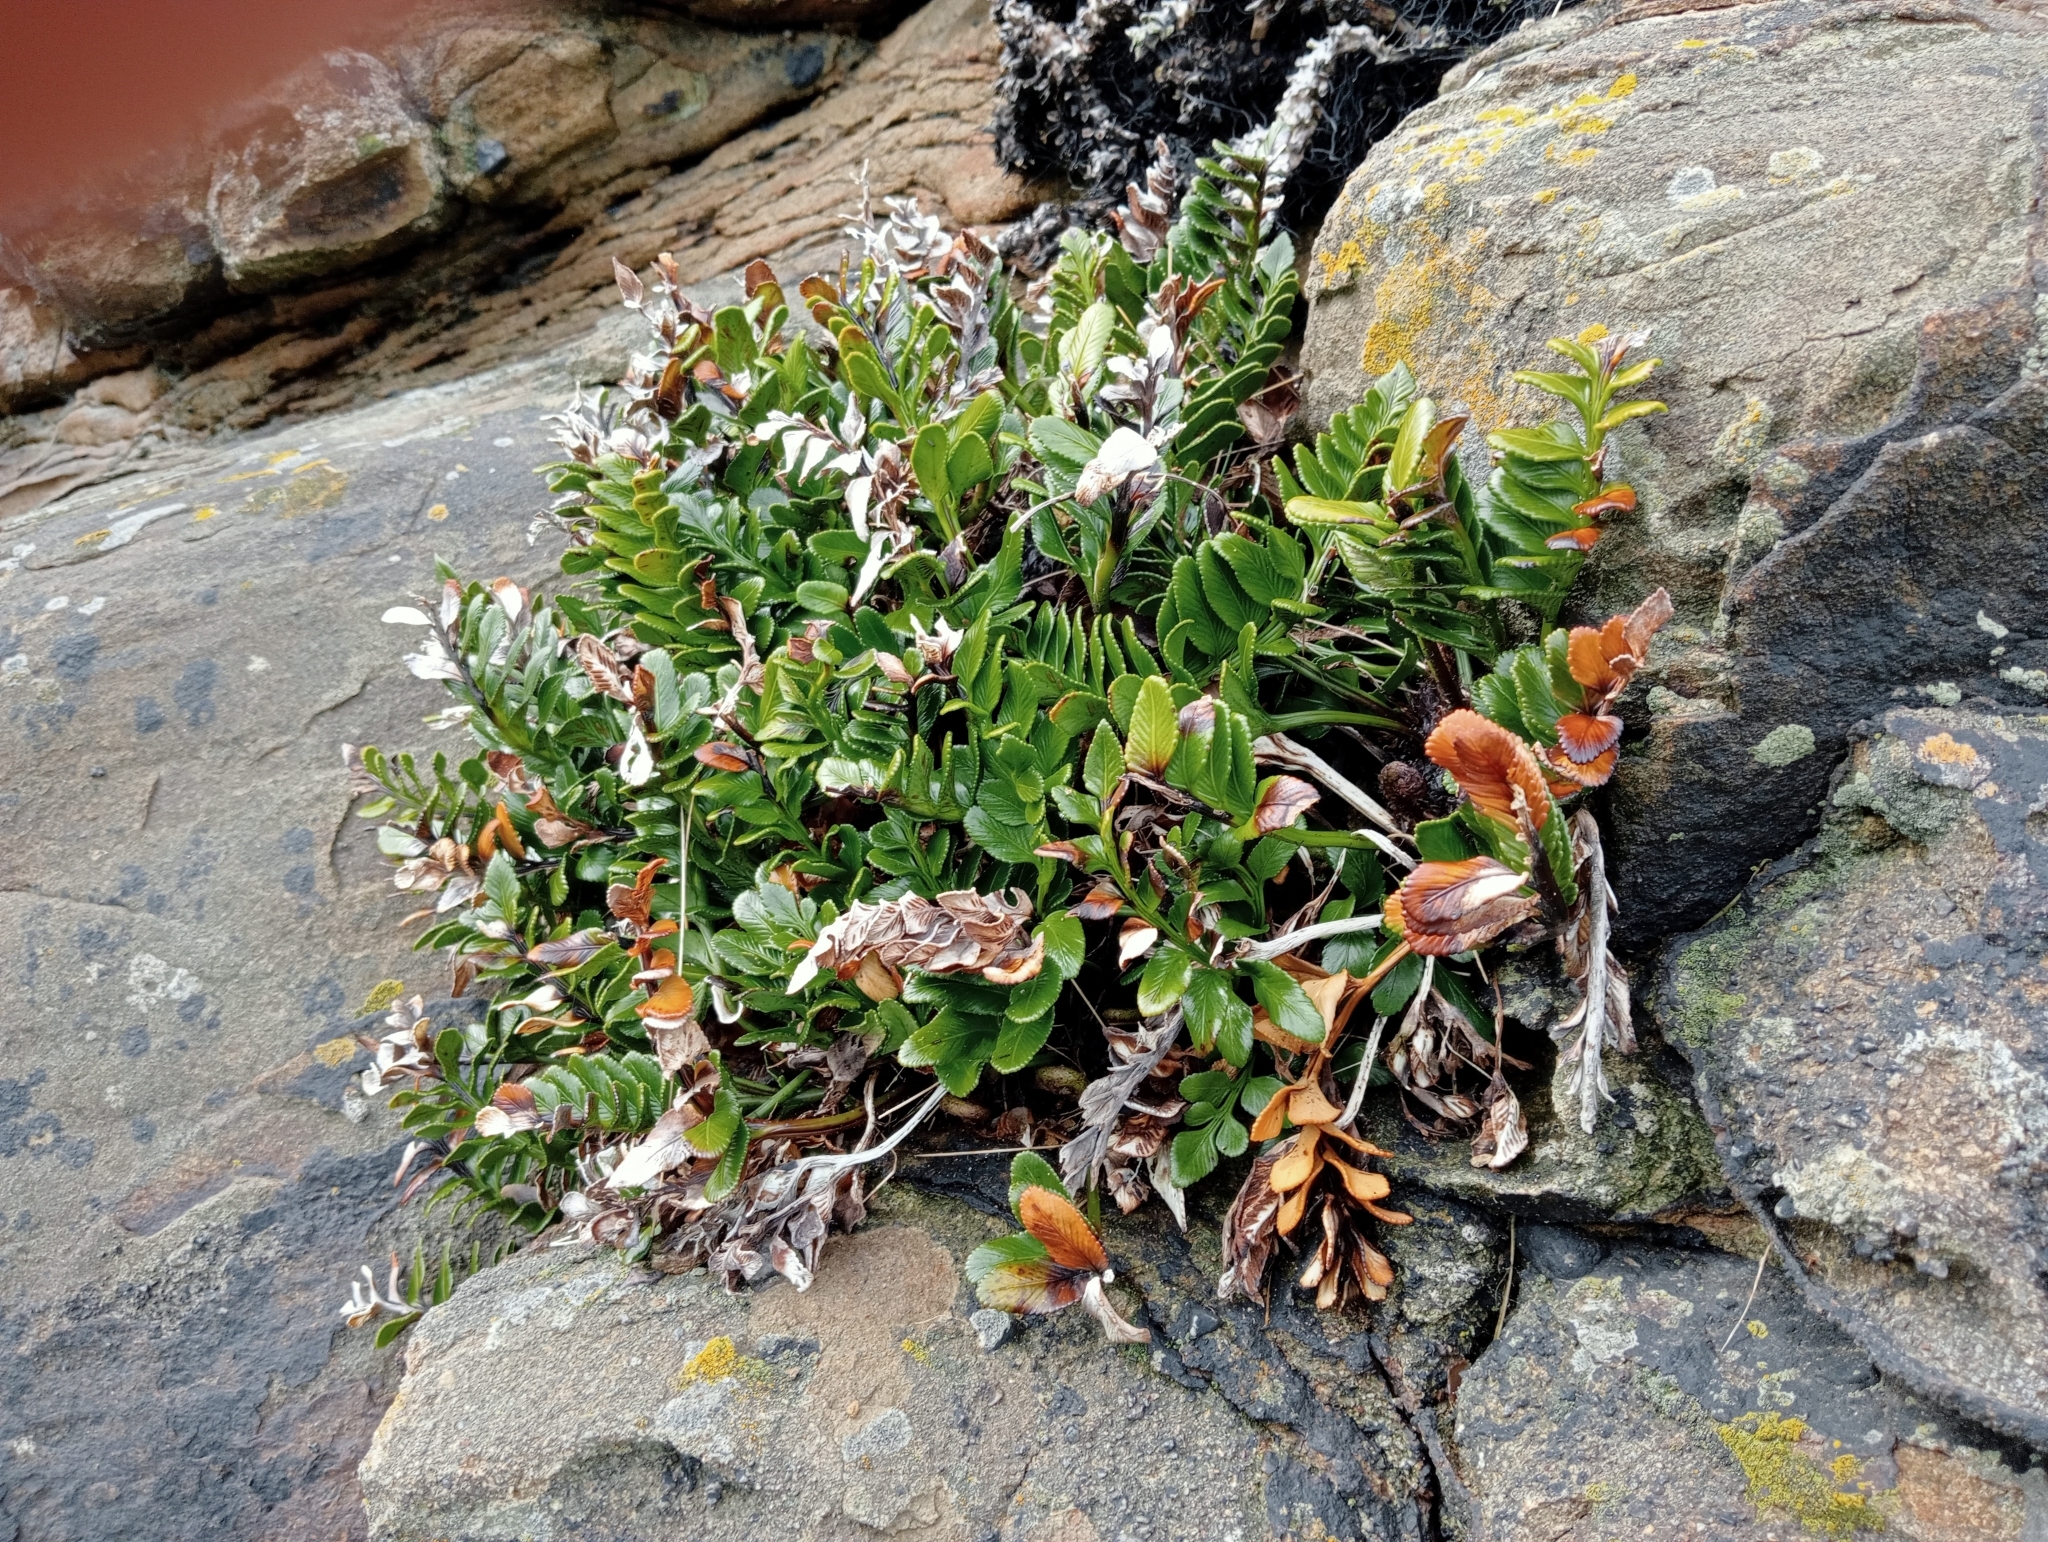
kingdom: Plantae
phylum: Tracheophyta
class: Polypodiopsida
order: Polypodiales
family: Aspleniaceae
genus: Asplenium
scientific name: Asplenium obtusatum
